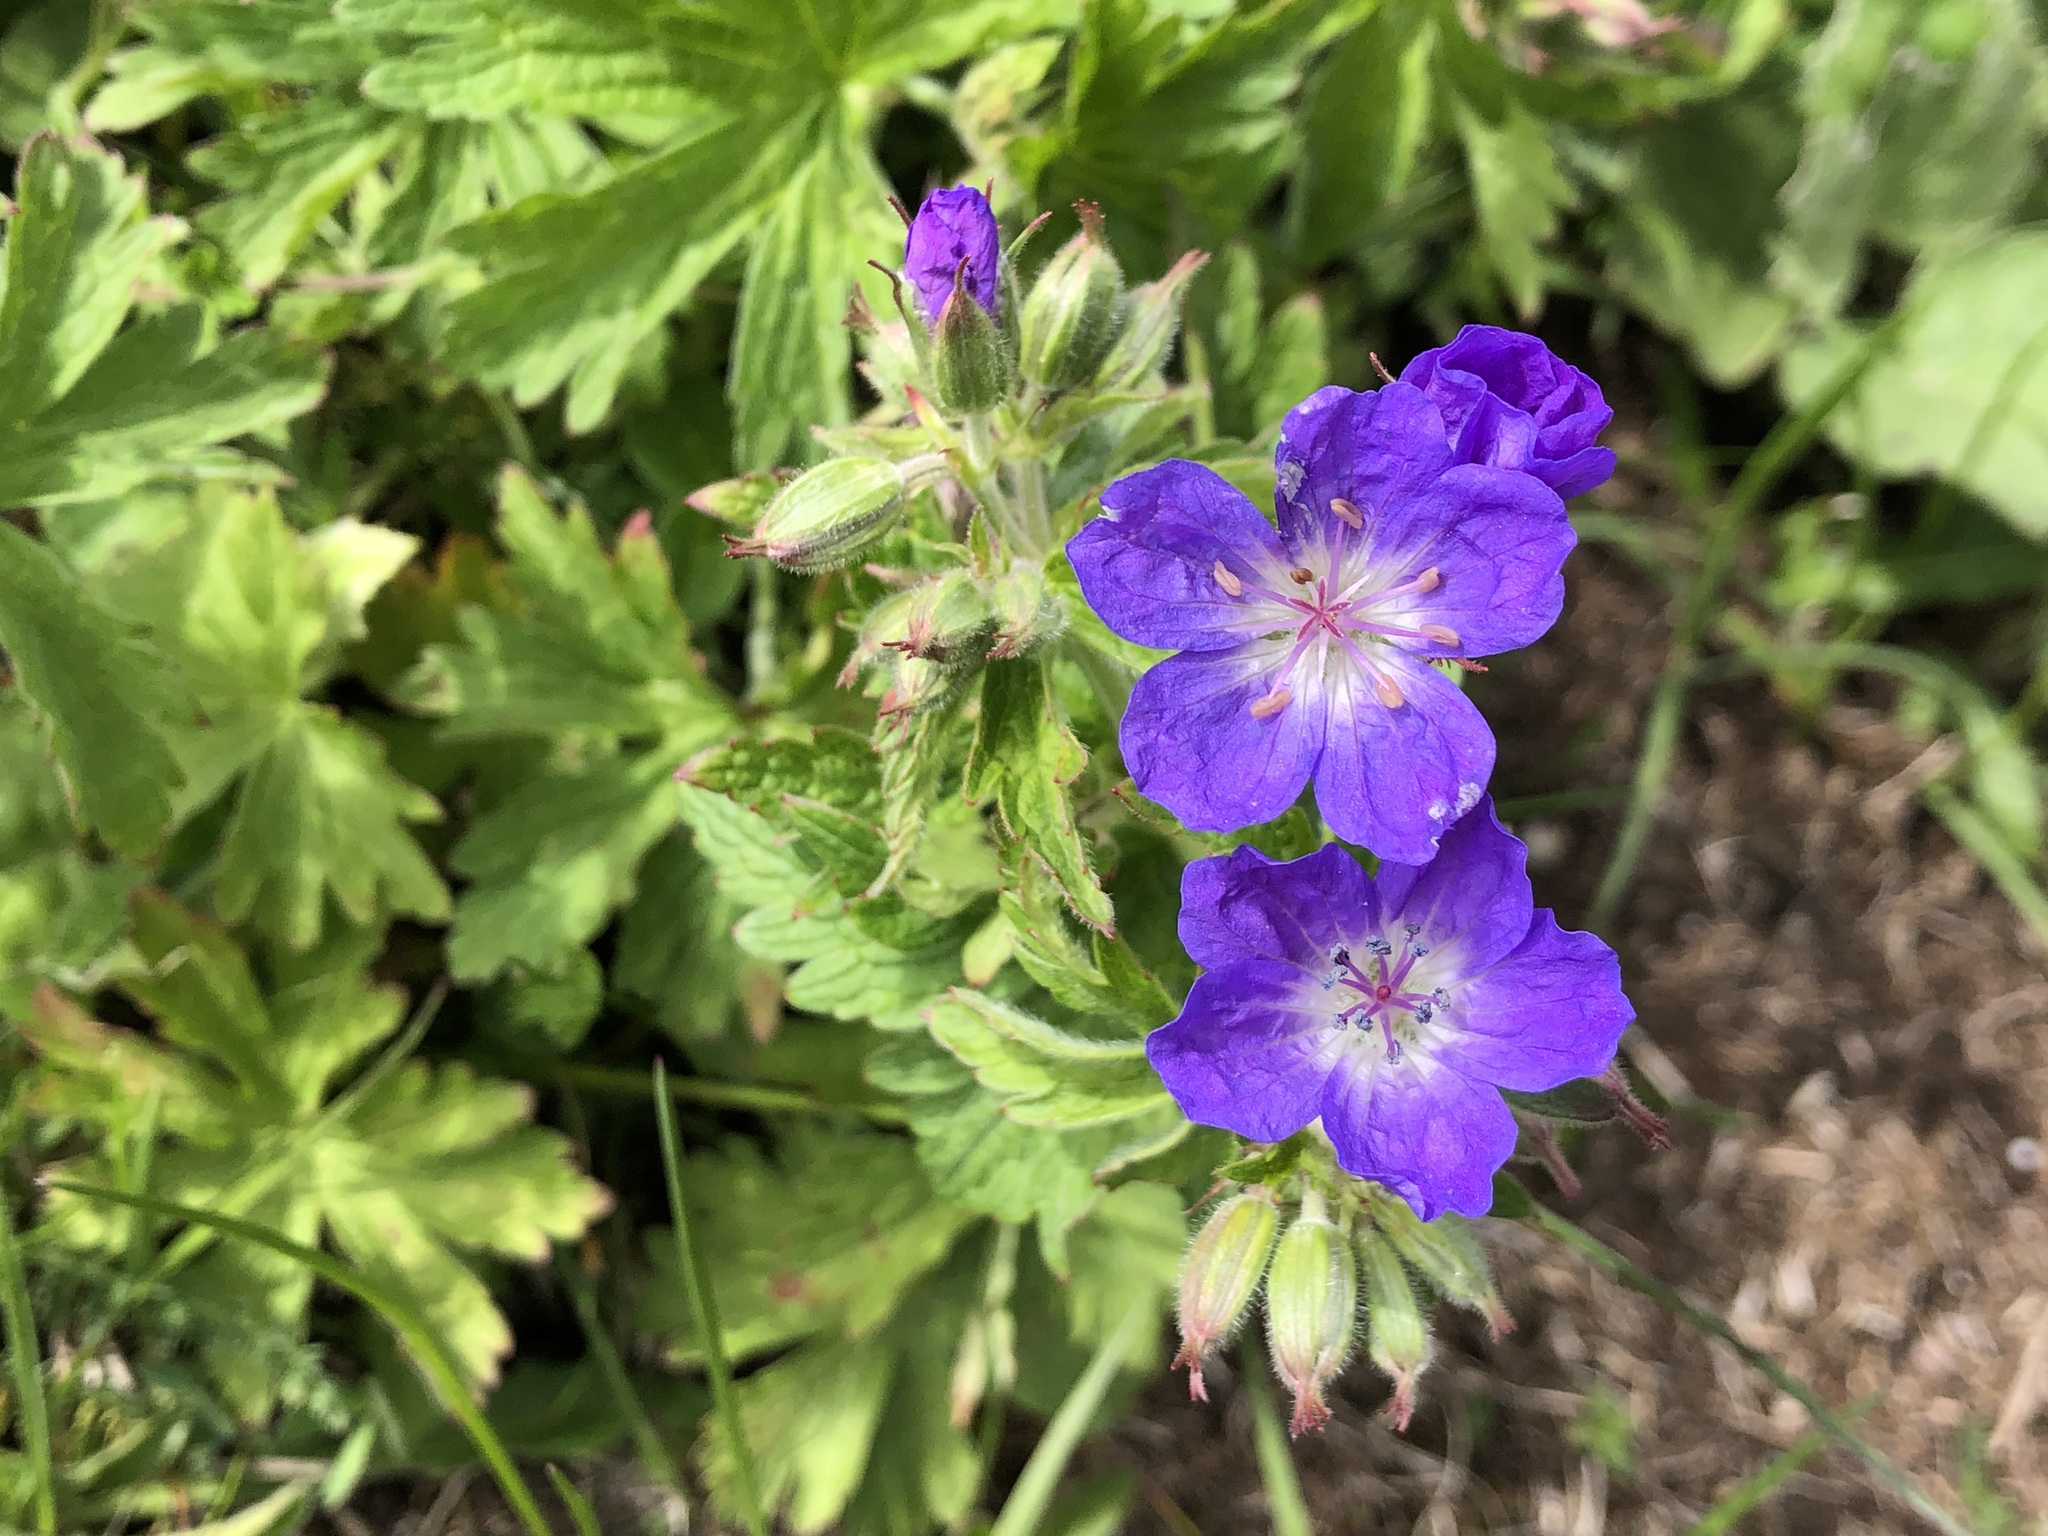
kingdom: Plantae
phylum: Tracheophyta
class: Magnoliopsida
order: Geraniales
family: Geraniaceae
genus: Geranium
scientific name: Geranium sylvaticum
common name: Wood crane's-bill
